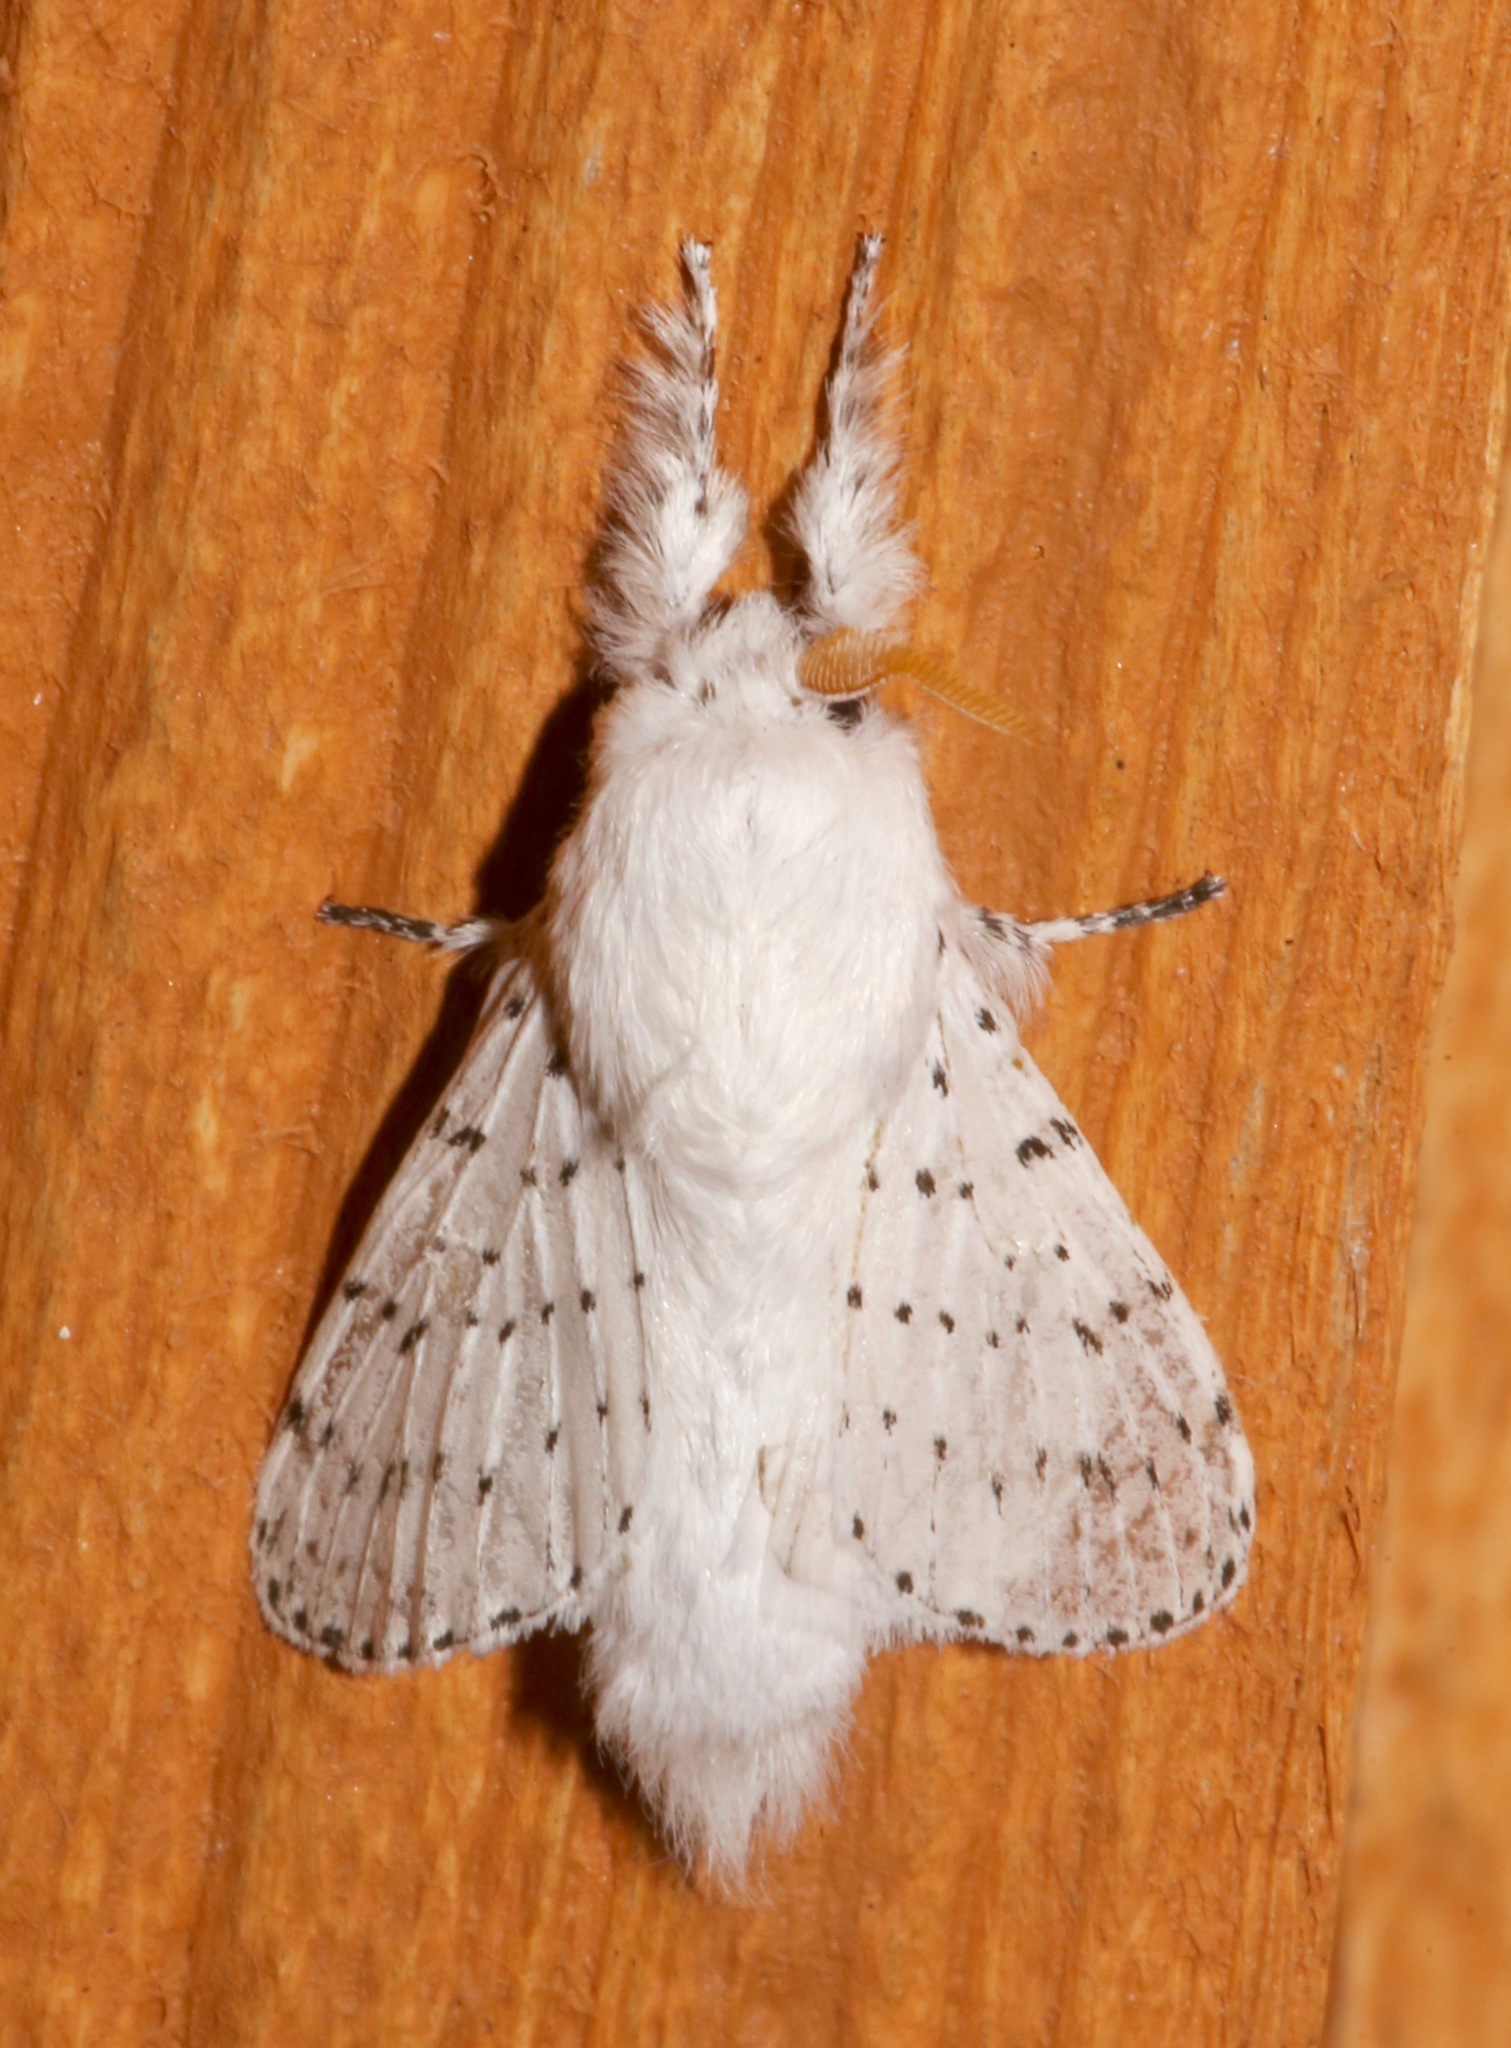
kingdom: Animalia
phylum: Arthropoda
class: Insecta
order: Lepidoptera
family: Lasiocampidae
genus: Artace
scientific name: Artace cribrarius
